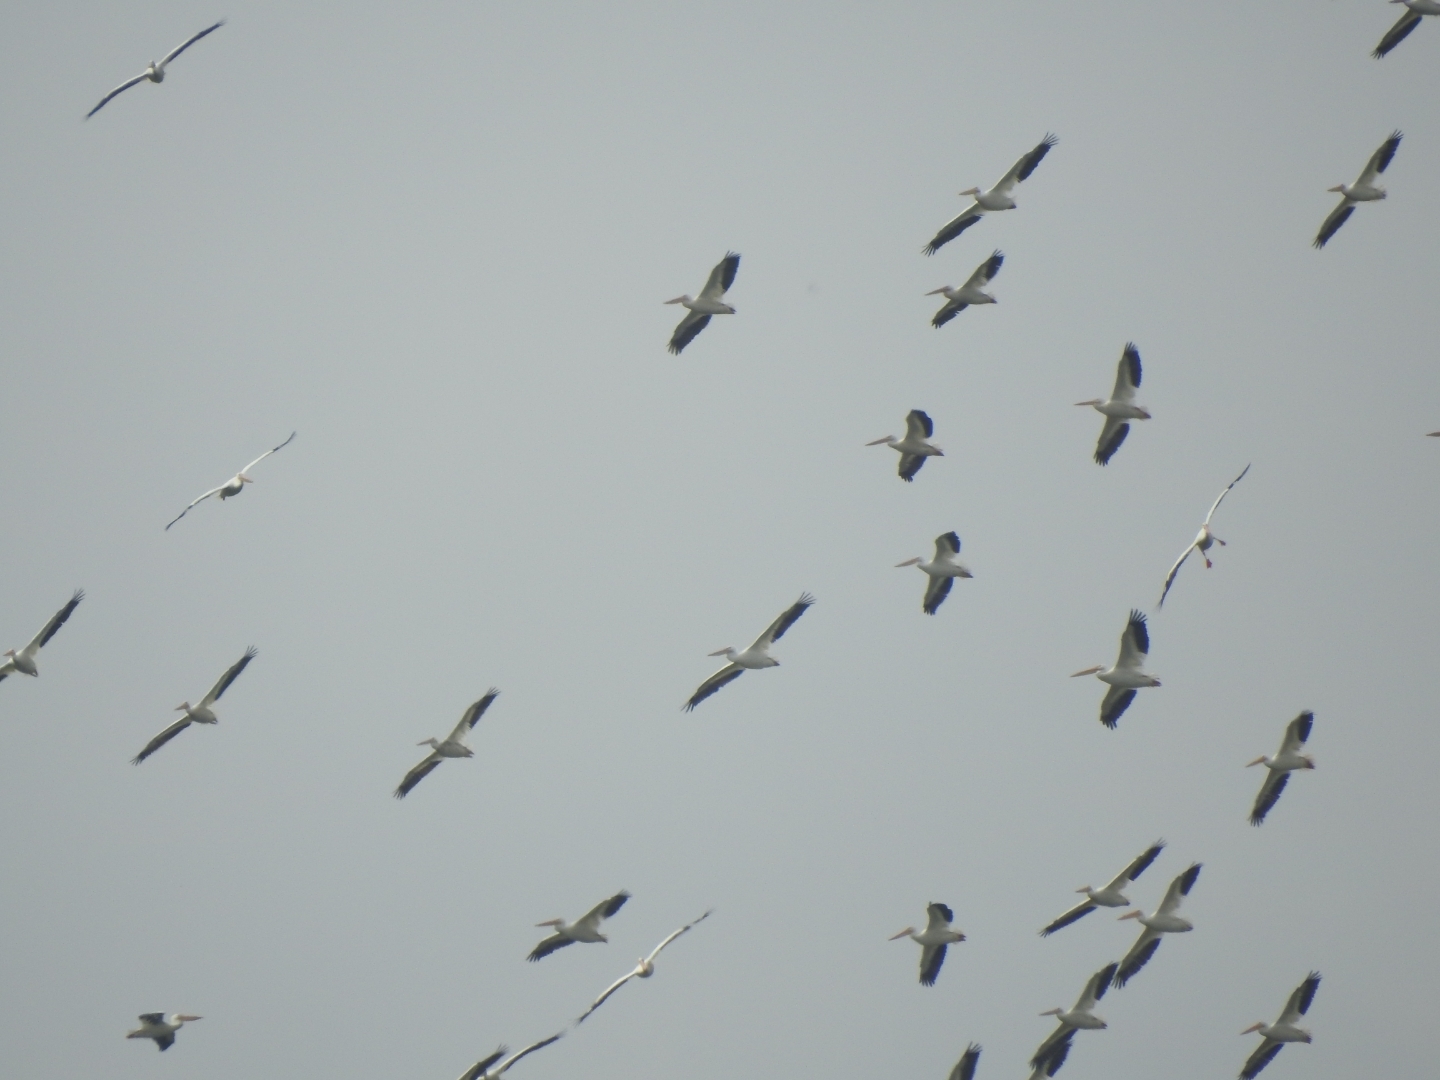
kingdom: Animalia
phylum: Chordata
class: Aves
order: Pelecaniformes
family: Pelecanidae
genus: Pelecanus
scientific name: Pelecanus erythrorhynchos
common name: American white pelican
